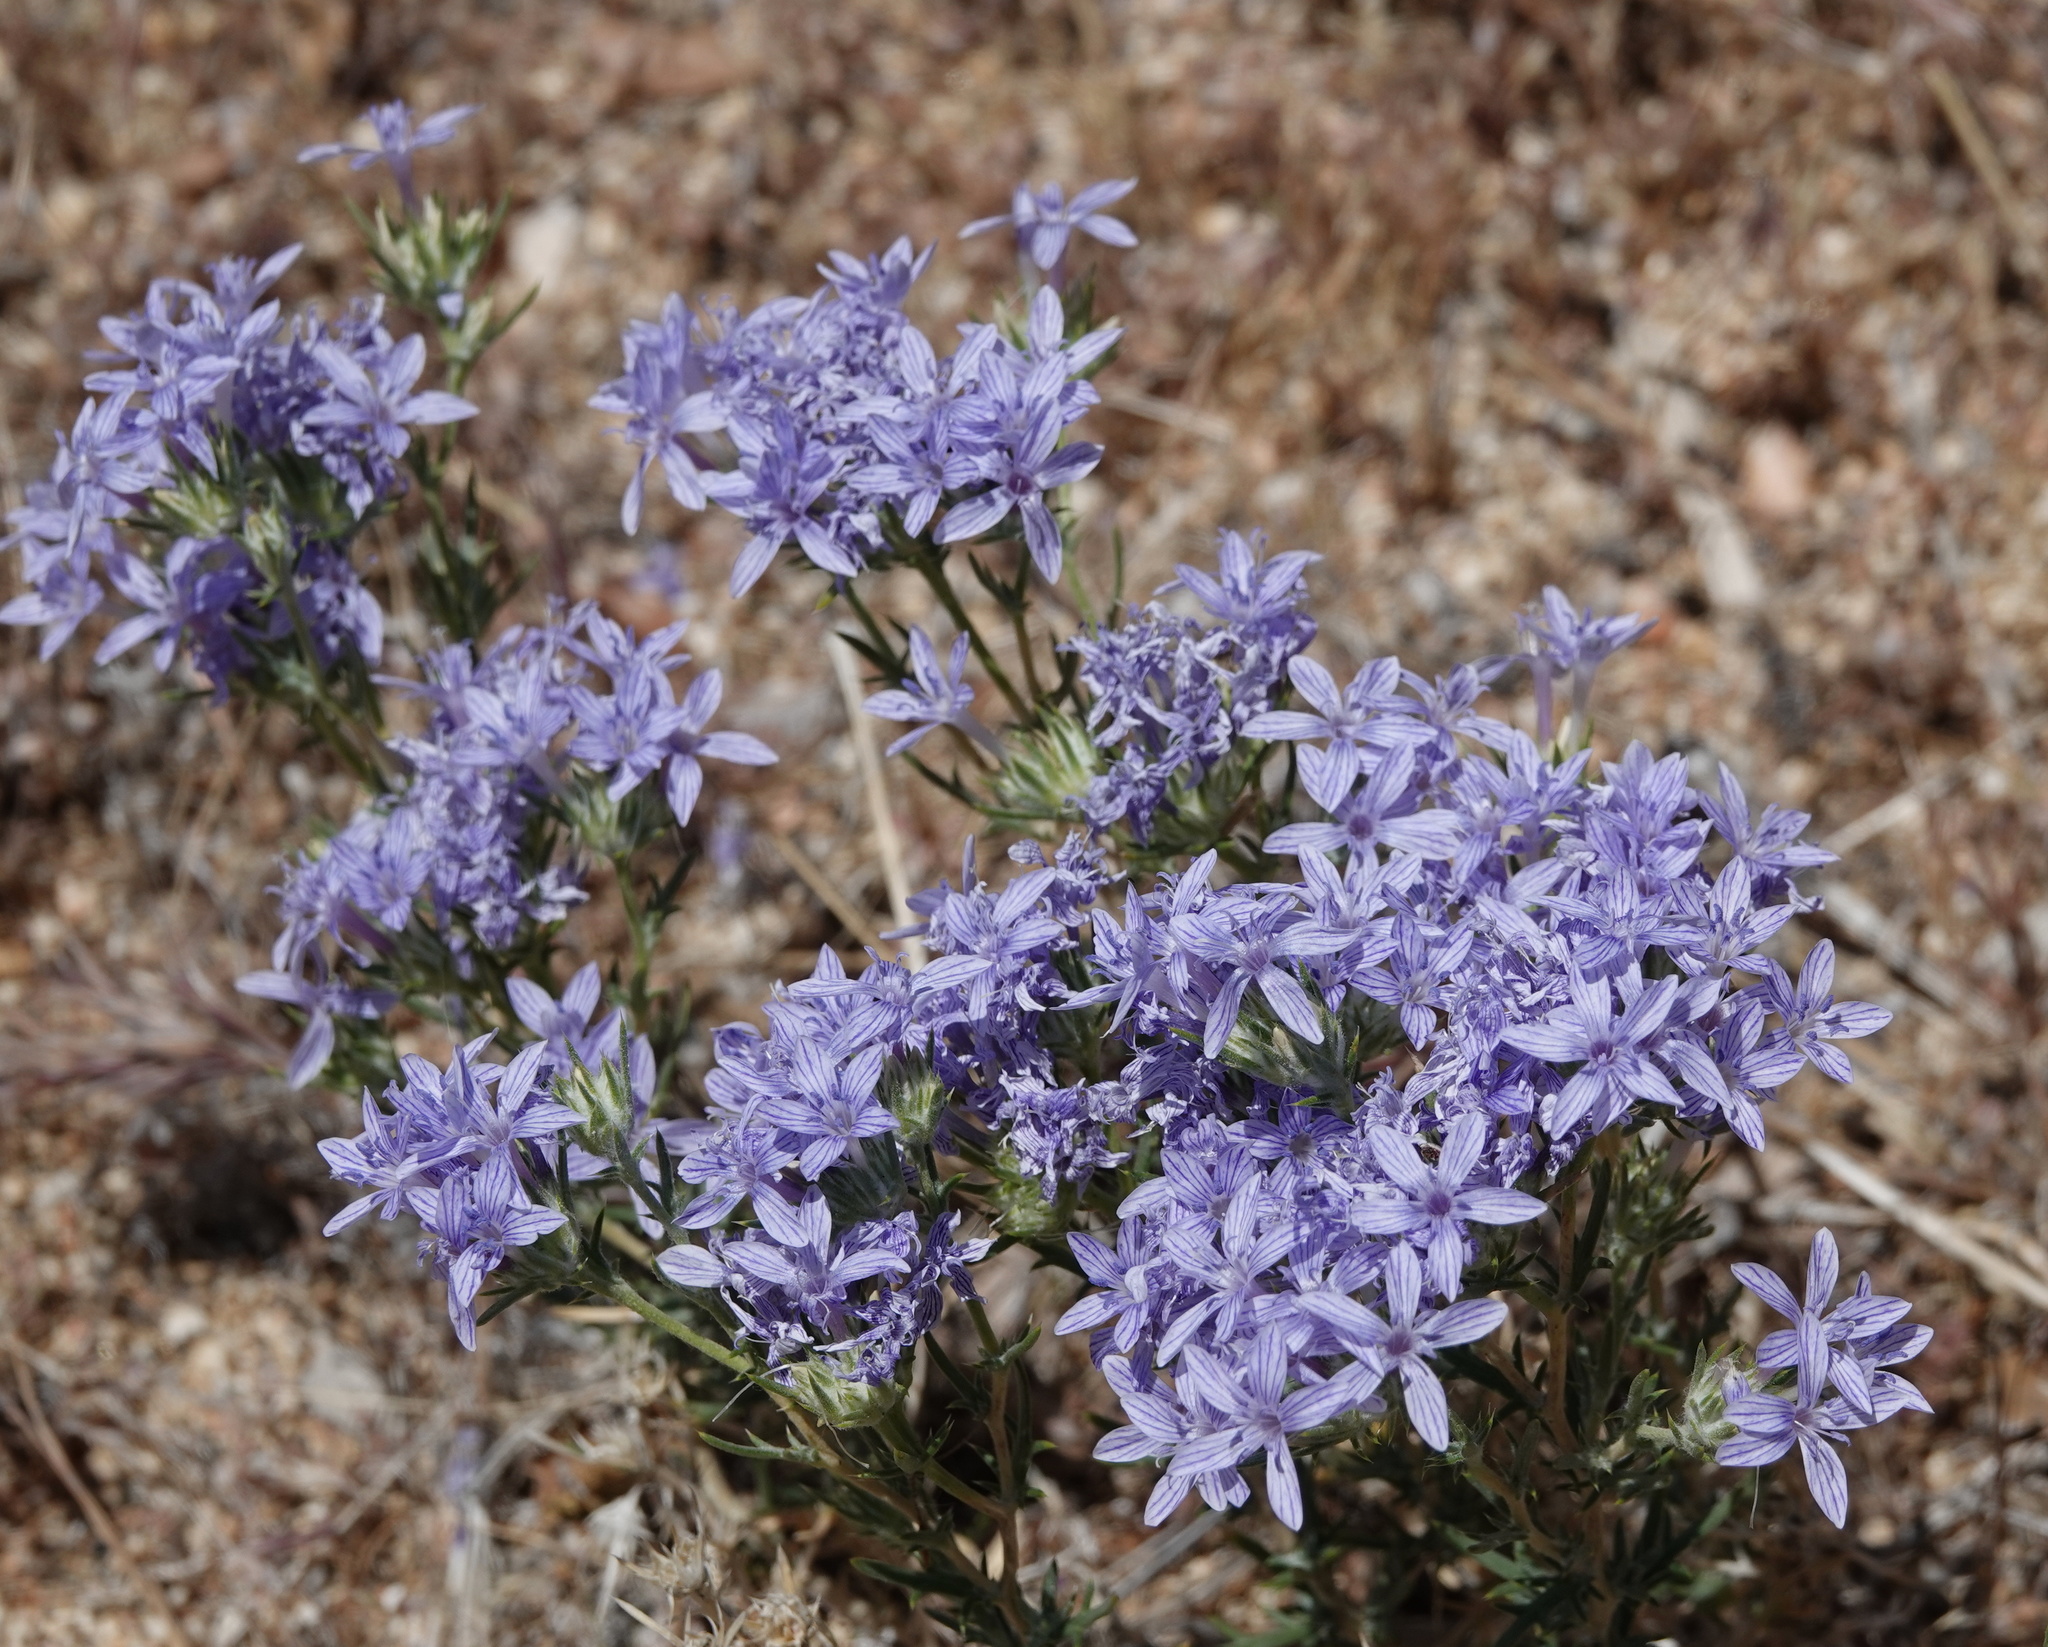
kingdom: Plantae
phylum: Tracheophyta
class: Magnoliopsida
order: Ericales
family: Polemoniaceae
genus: Eriastrum
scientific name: Eriastrum densifolium
